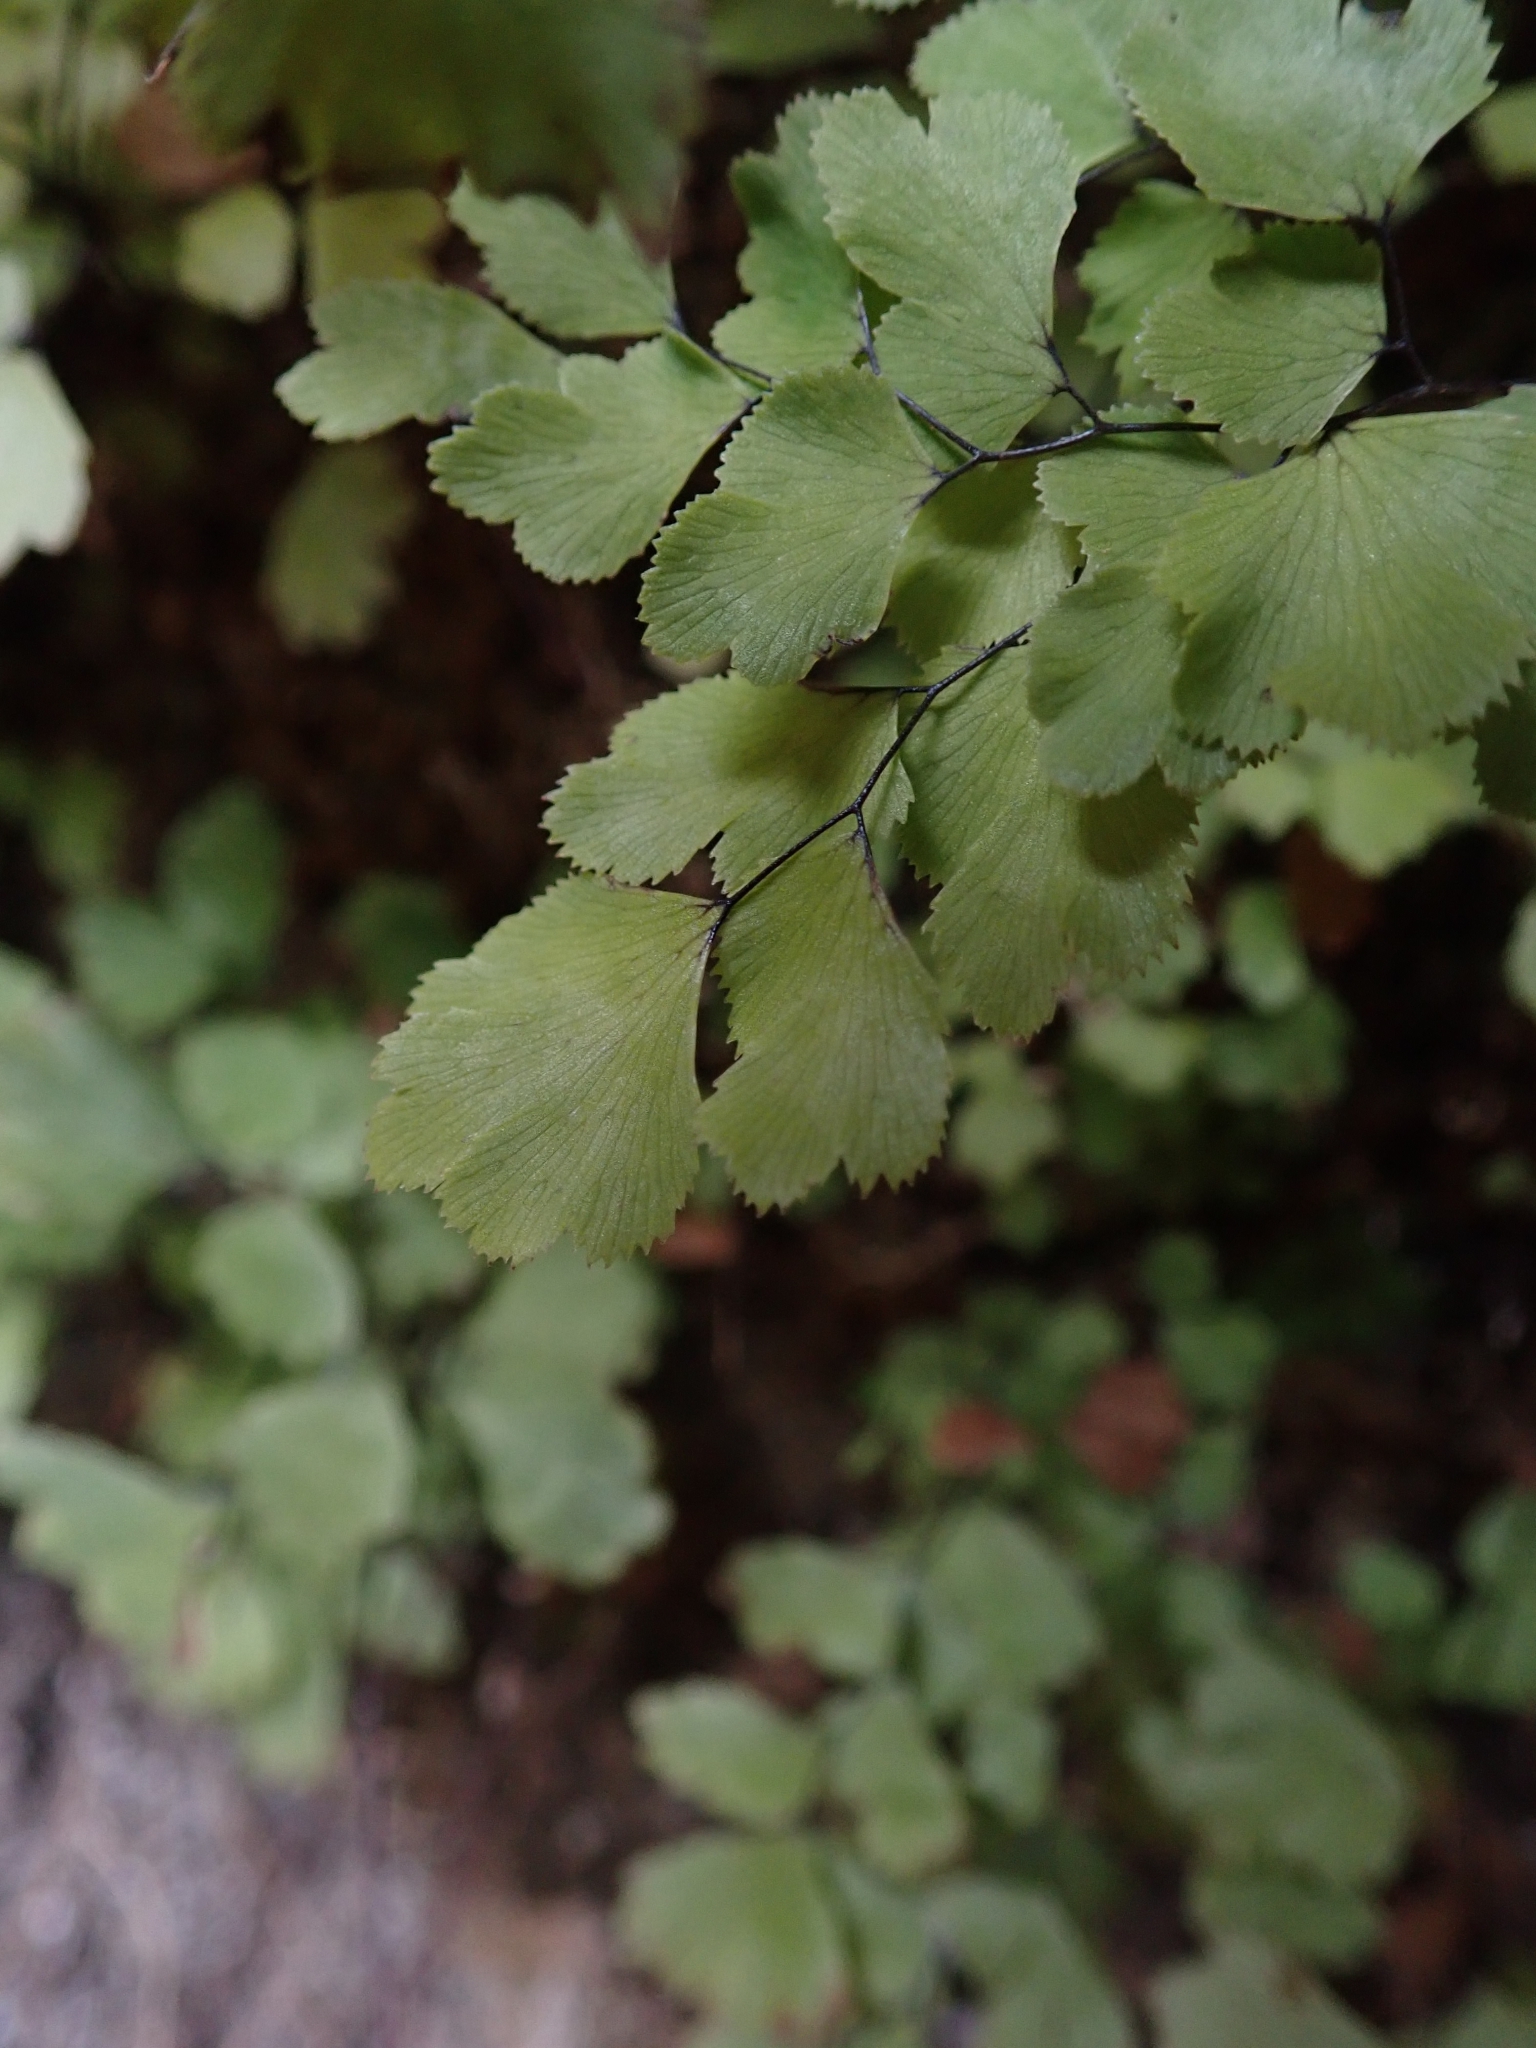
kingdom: Plantae
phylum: Tracheophyta
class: Polypodiopsida
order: Polypodiales
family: Pteridaceae
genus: Adiantum
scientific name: Adiantum capillus-veneris
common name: Maidenhair fern
